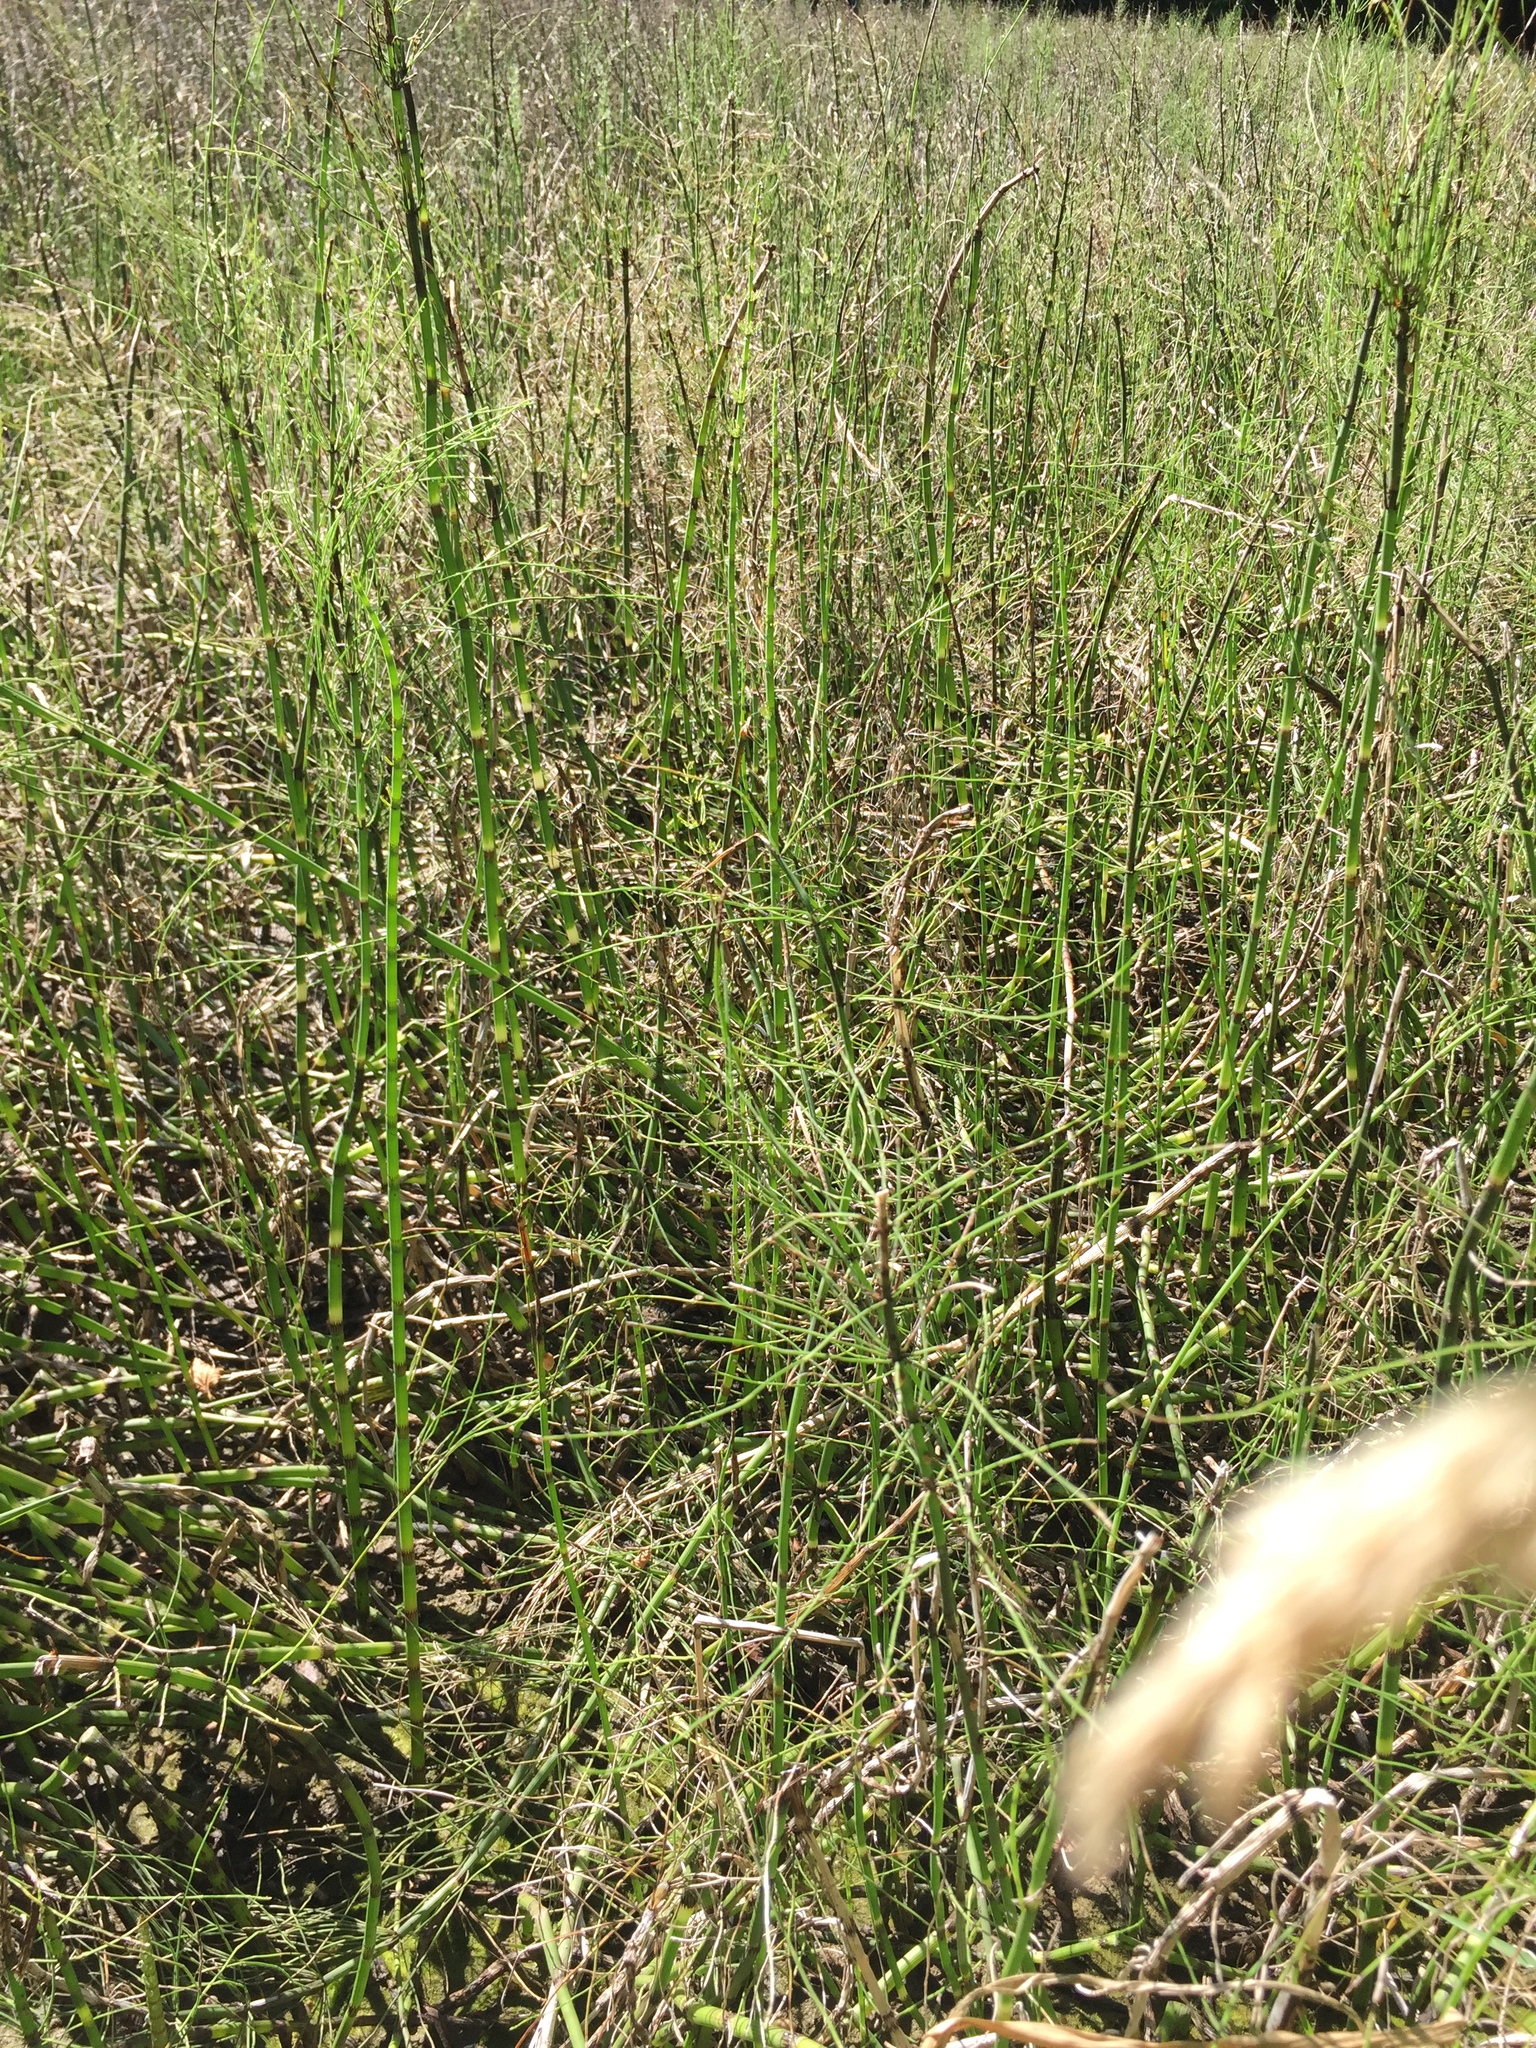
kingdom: Plantae
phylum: Tracheophyta
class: Polypodiopsida
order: Equisetales
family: Equisetaceae
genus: Equisetum
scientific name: Equisetum fluviatile
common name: Water horsetail
